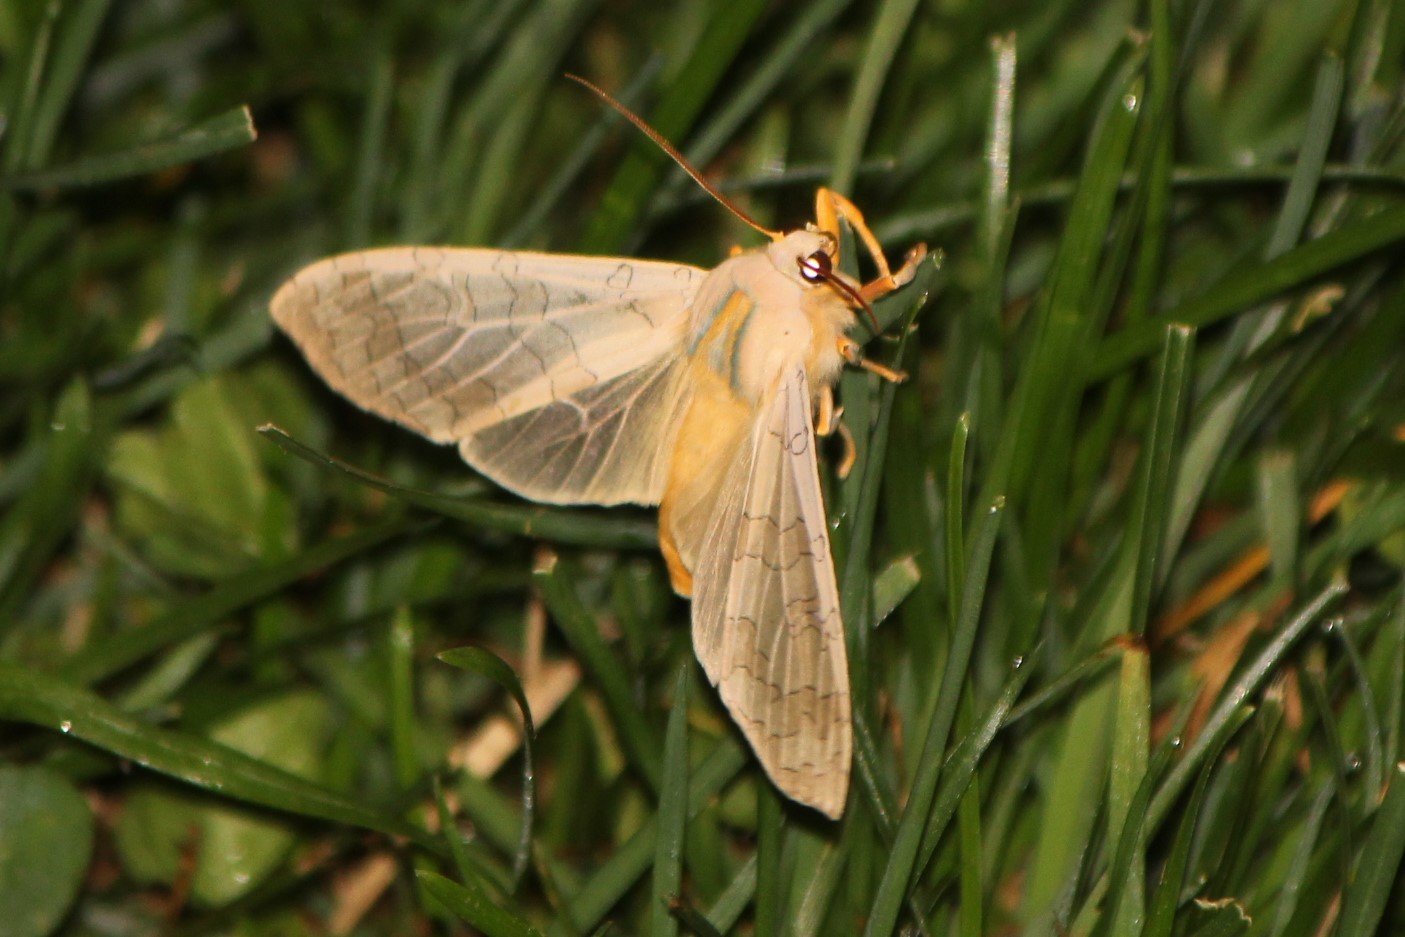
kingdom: Animalia
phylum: Arthropoda
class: Insecta
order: Lepidoptera
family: Erebidae
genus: Halysidota
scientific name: Halysidota tessellaris
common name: Banded tussock moth
